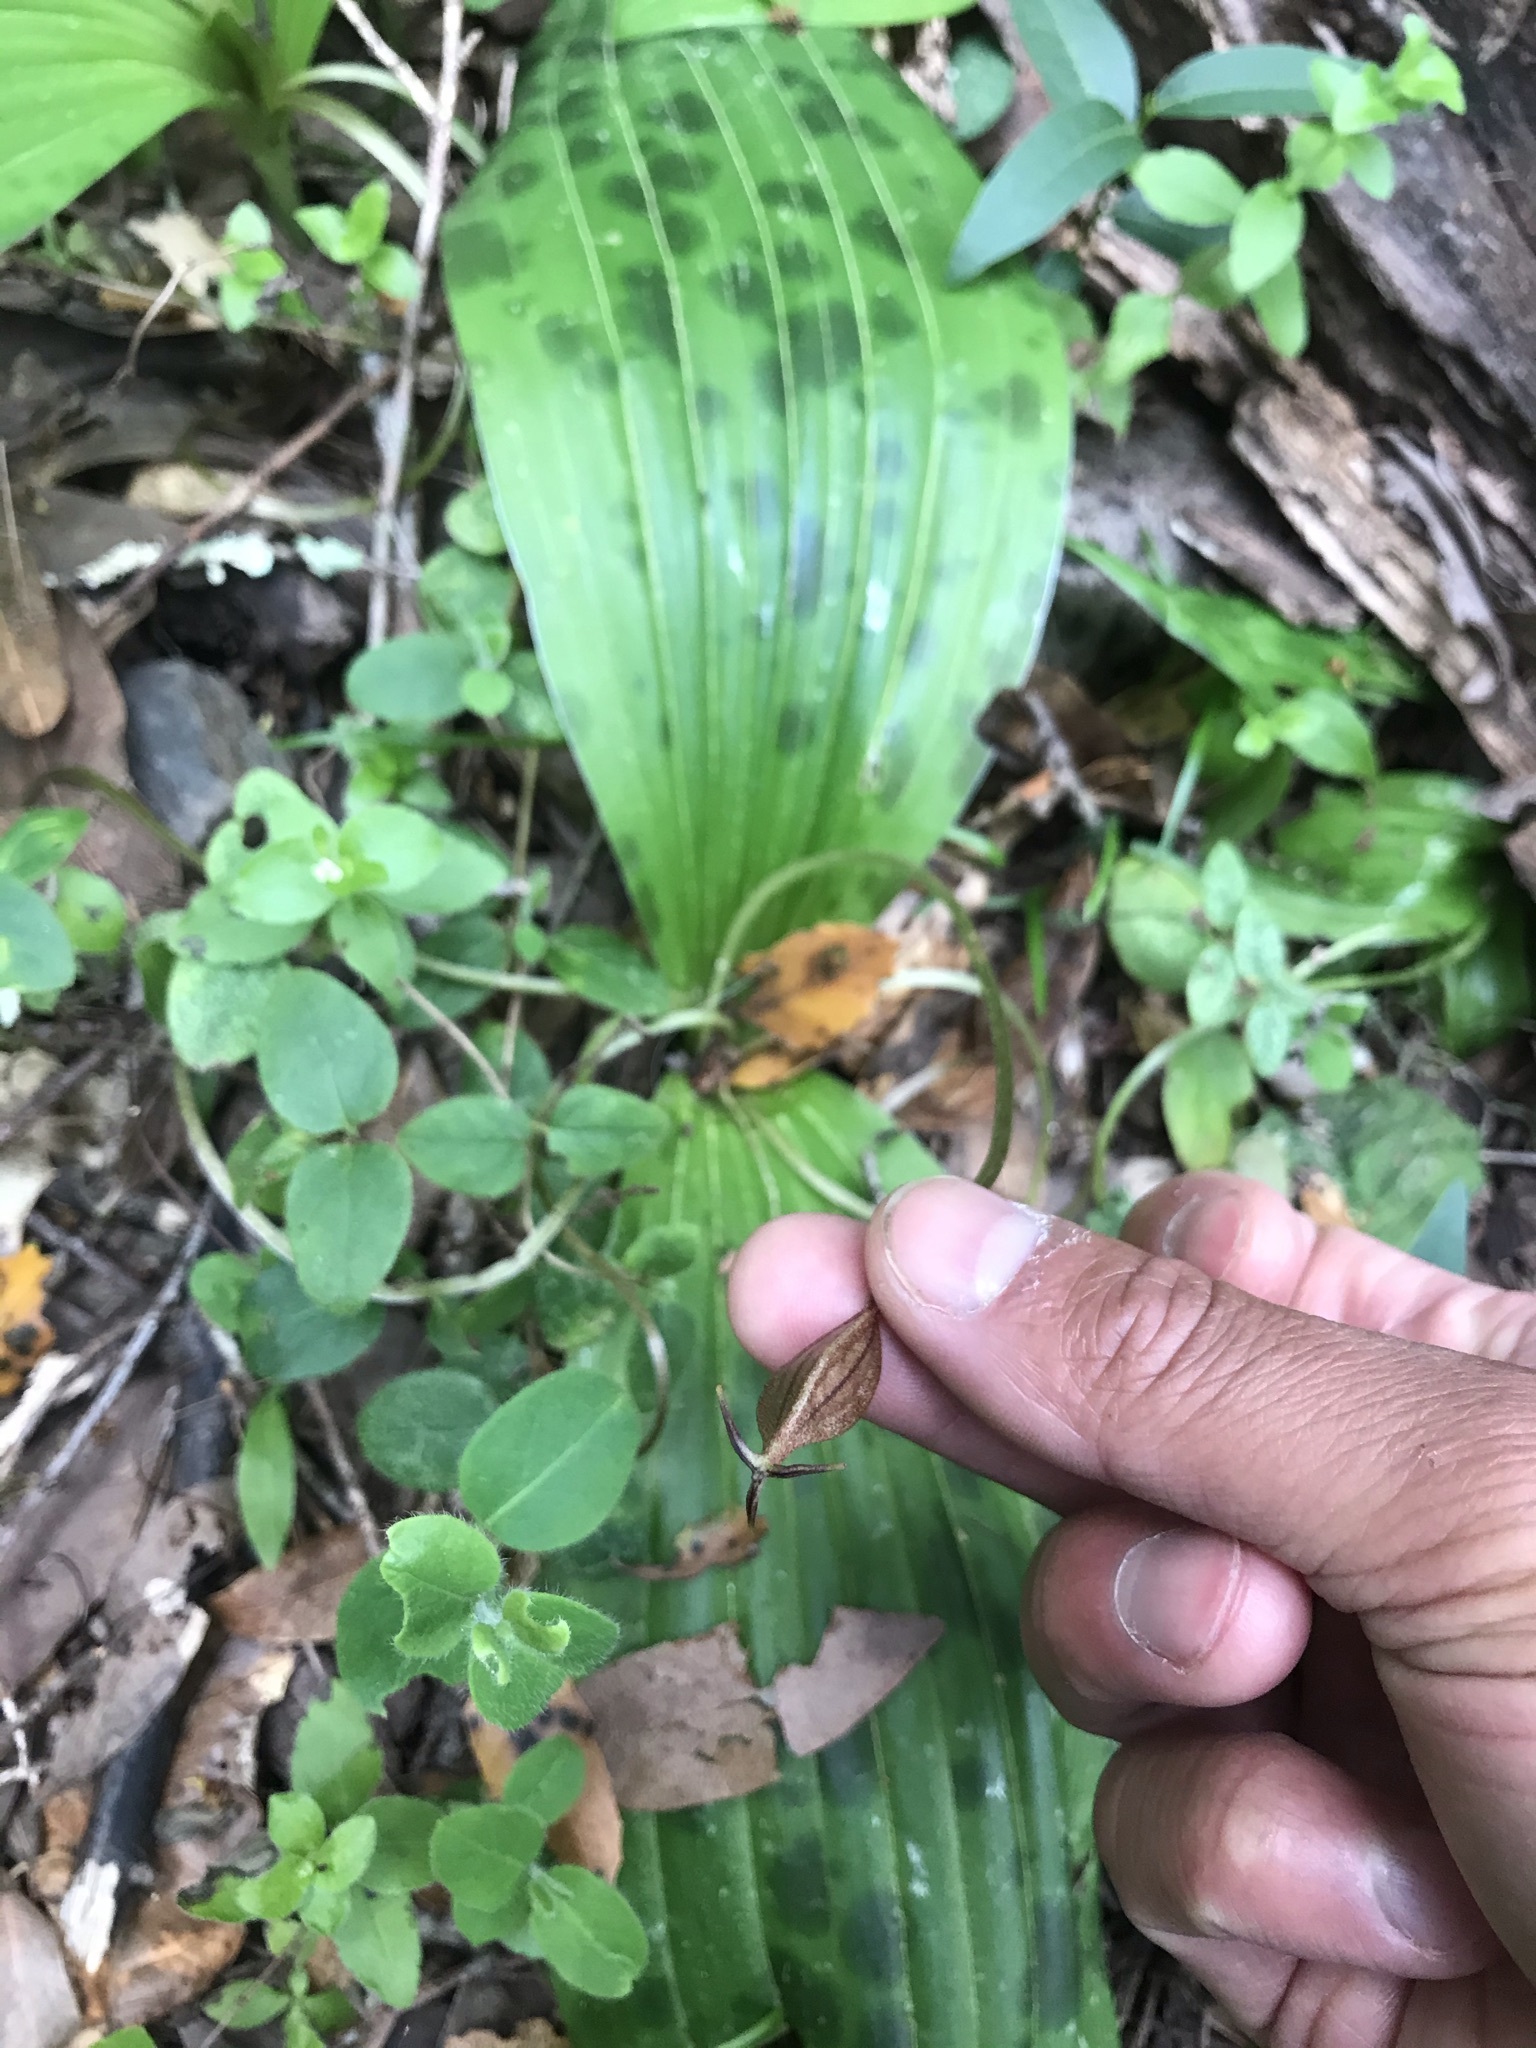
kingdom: Plantae
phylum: Tracheophyta
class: Liliopsida
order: Liliales
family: Liliaceae
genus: Scoliopus
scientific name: Scoliopus bigelovii
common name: Foetid adder's-tongue
